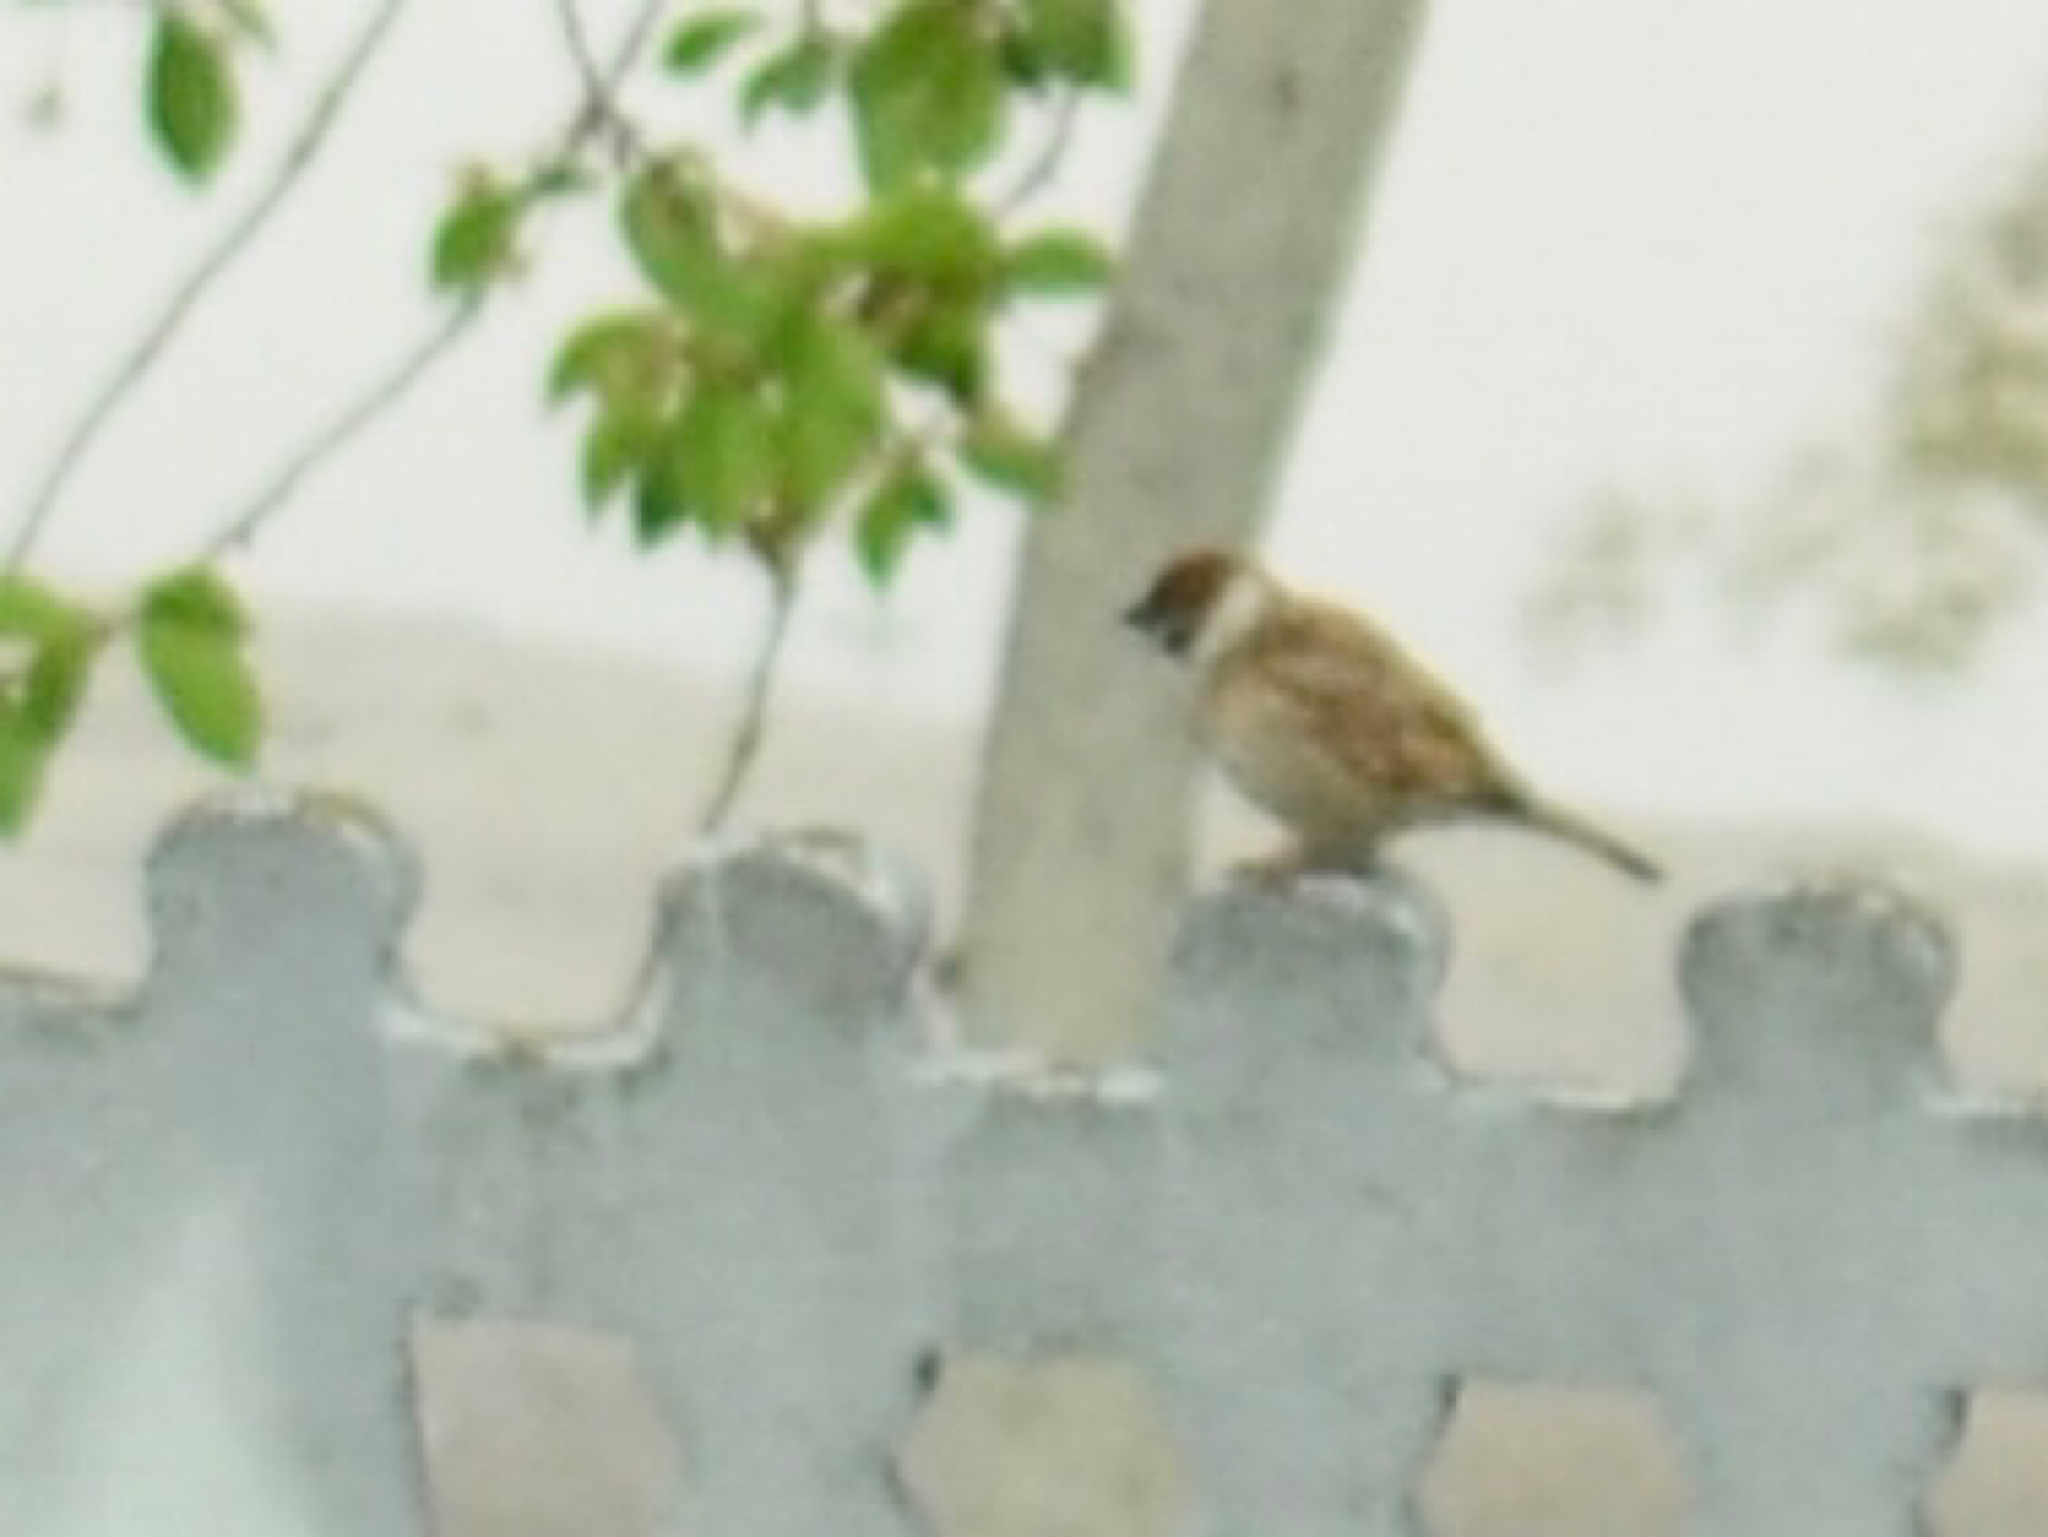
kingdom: Animalia
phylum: Chordata
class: Aves
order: Passeriformes
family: Passeridae
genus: Passer
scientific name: Passer montanus
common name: Eurasian tree sparrow
